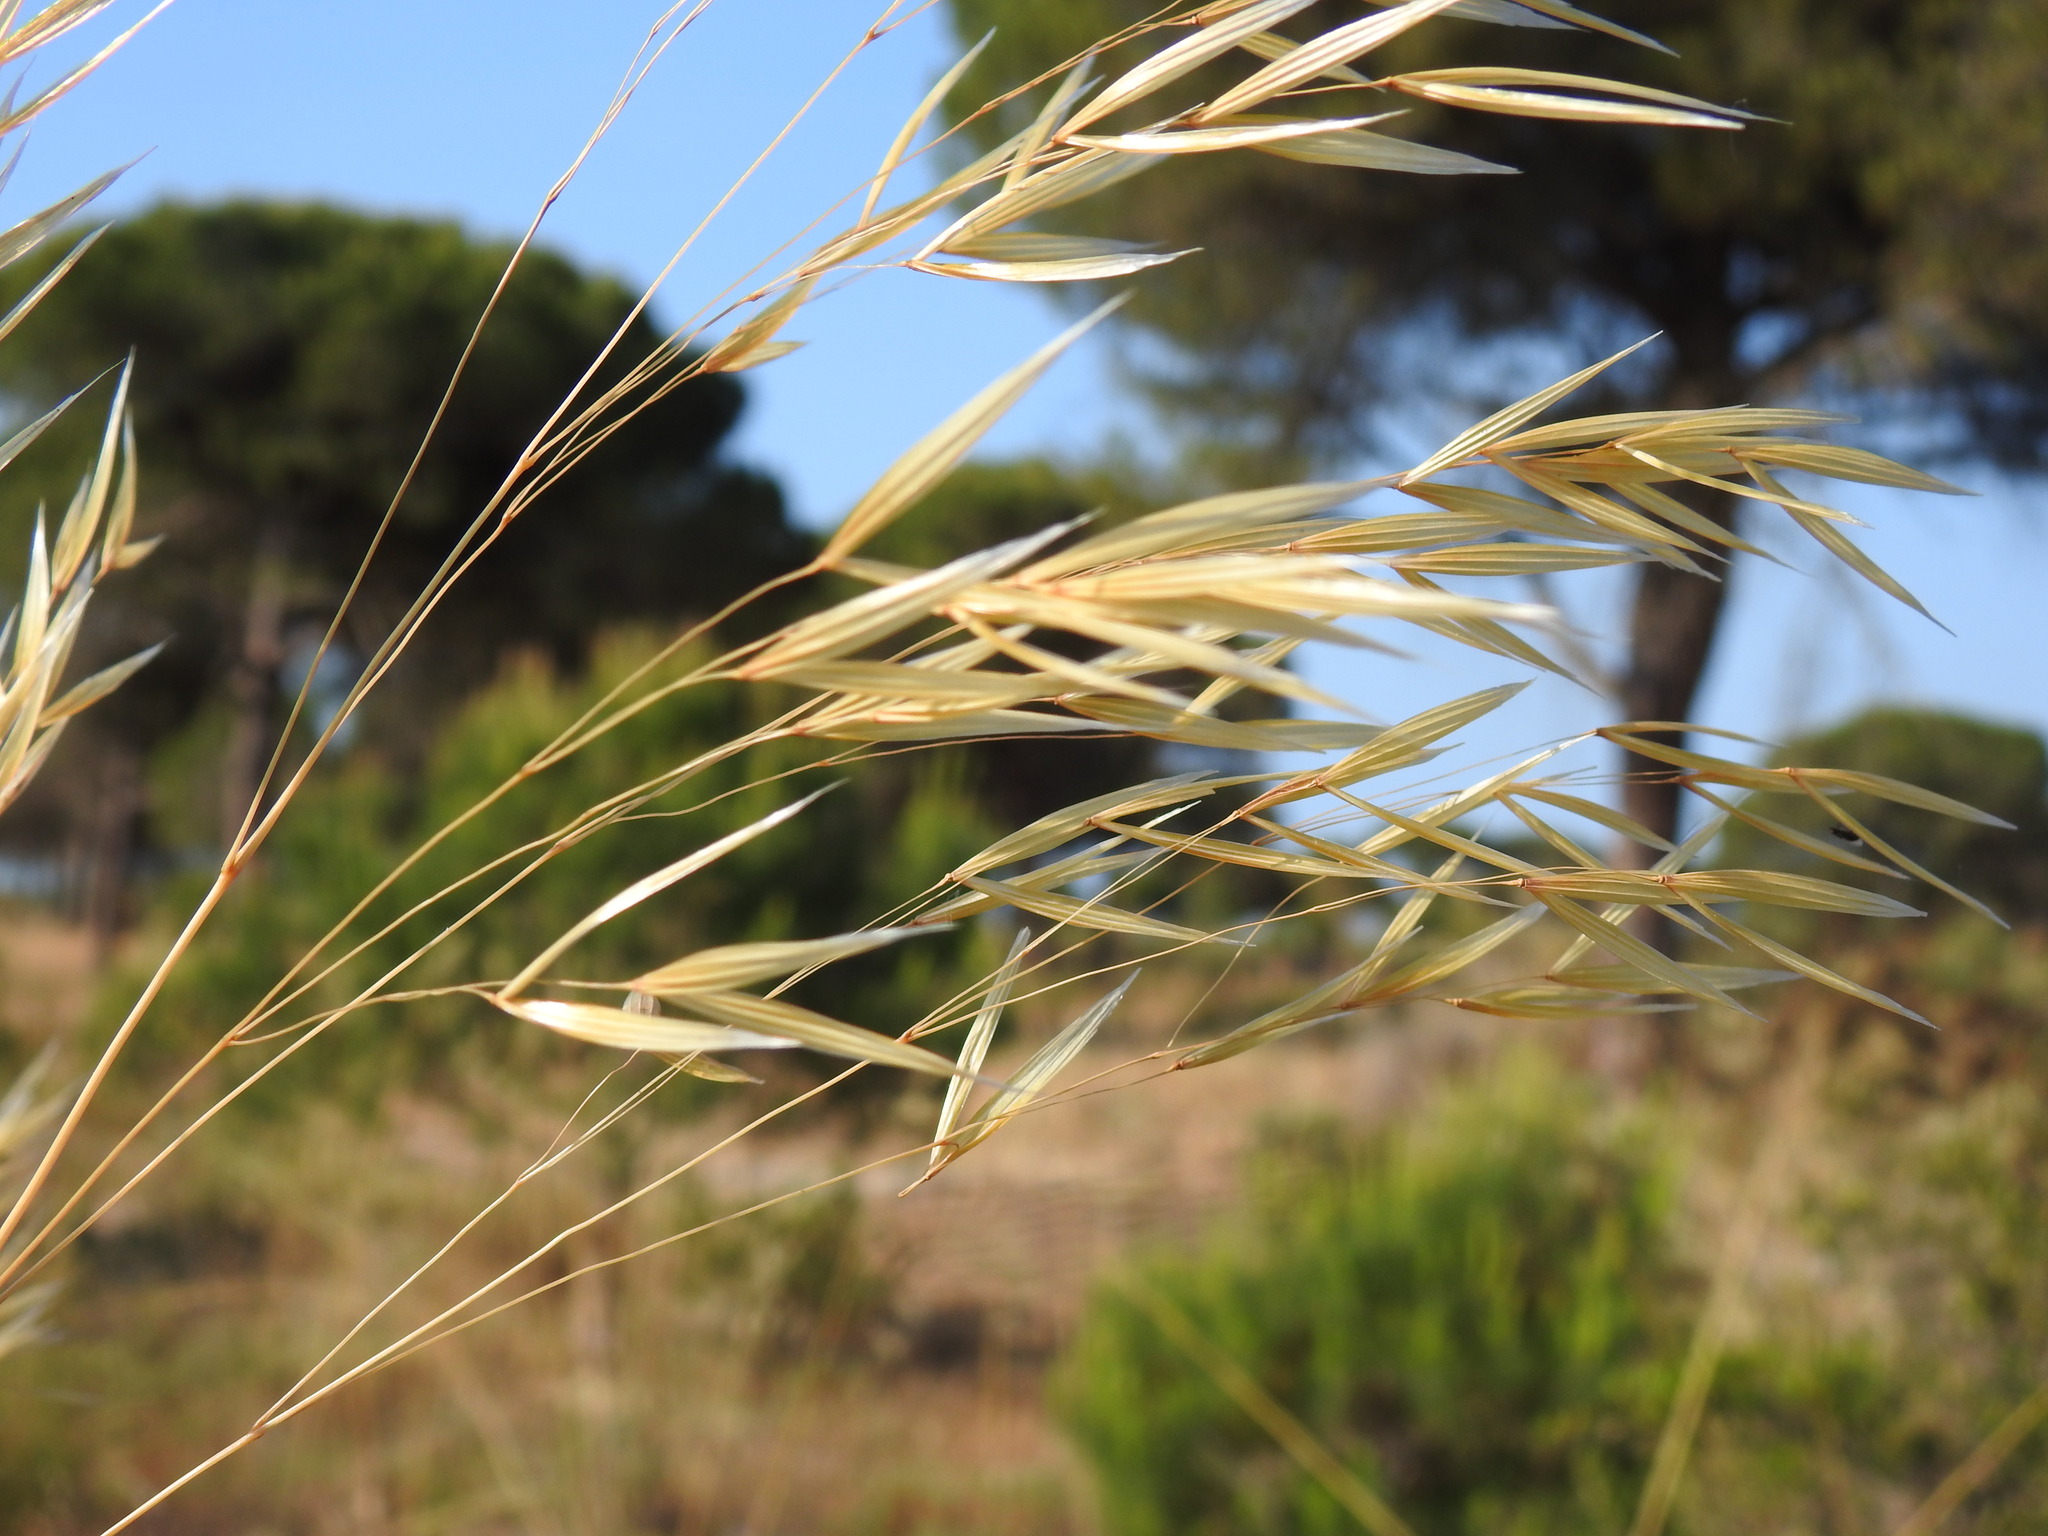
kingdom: Plantae
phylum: Tracheophyta
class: Liliopsida
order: Poales
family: Poaceae
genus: Celtica
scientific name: Celtica gigantea
